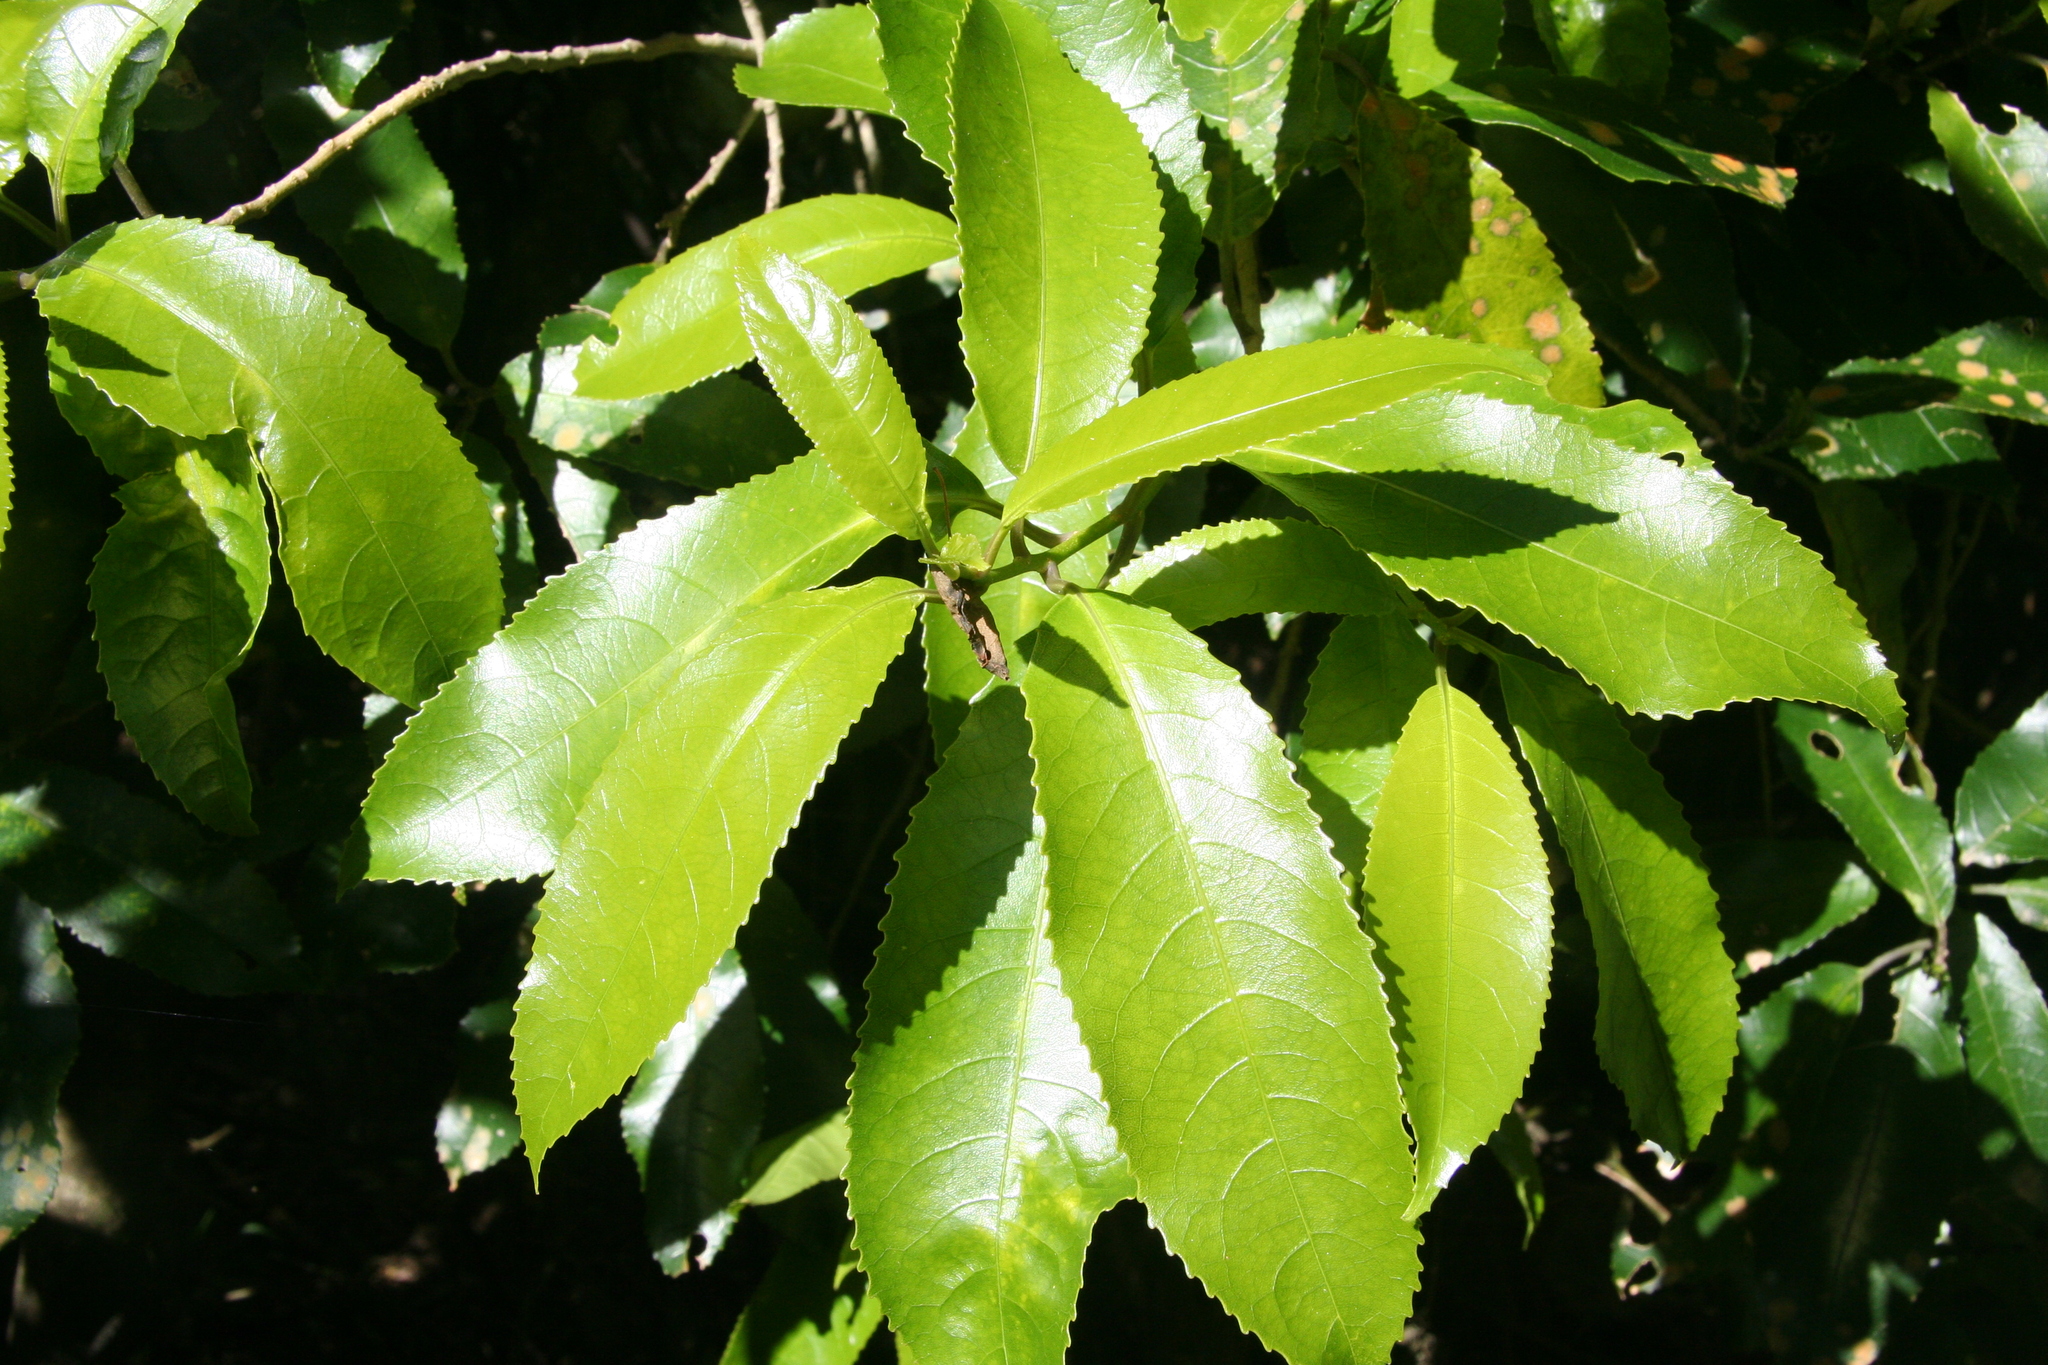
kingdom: Plantae
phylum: Tracheophyta
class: Magnoliopsida
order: Malpighiales
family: Violaceae
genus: Melicytus
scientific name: Melicytus ramiflorus
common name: Mahoe
